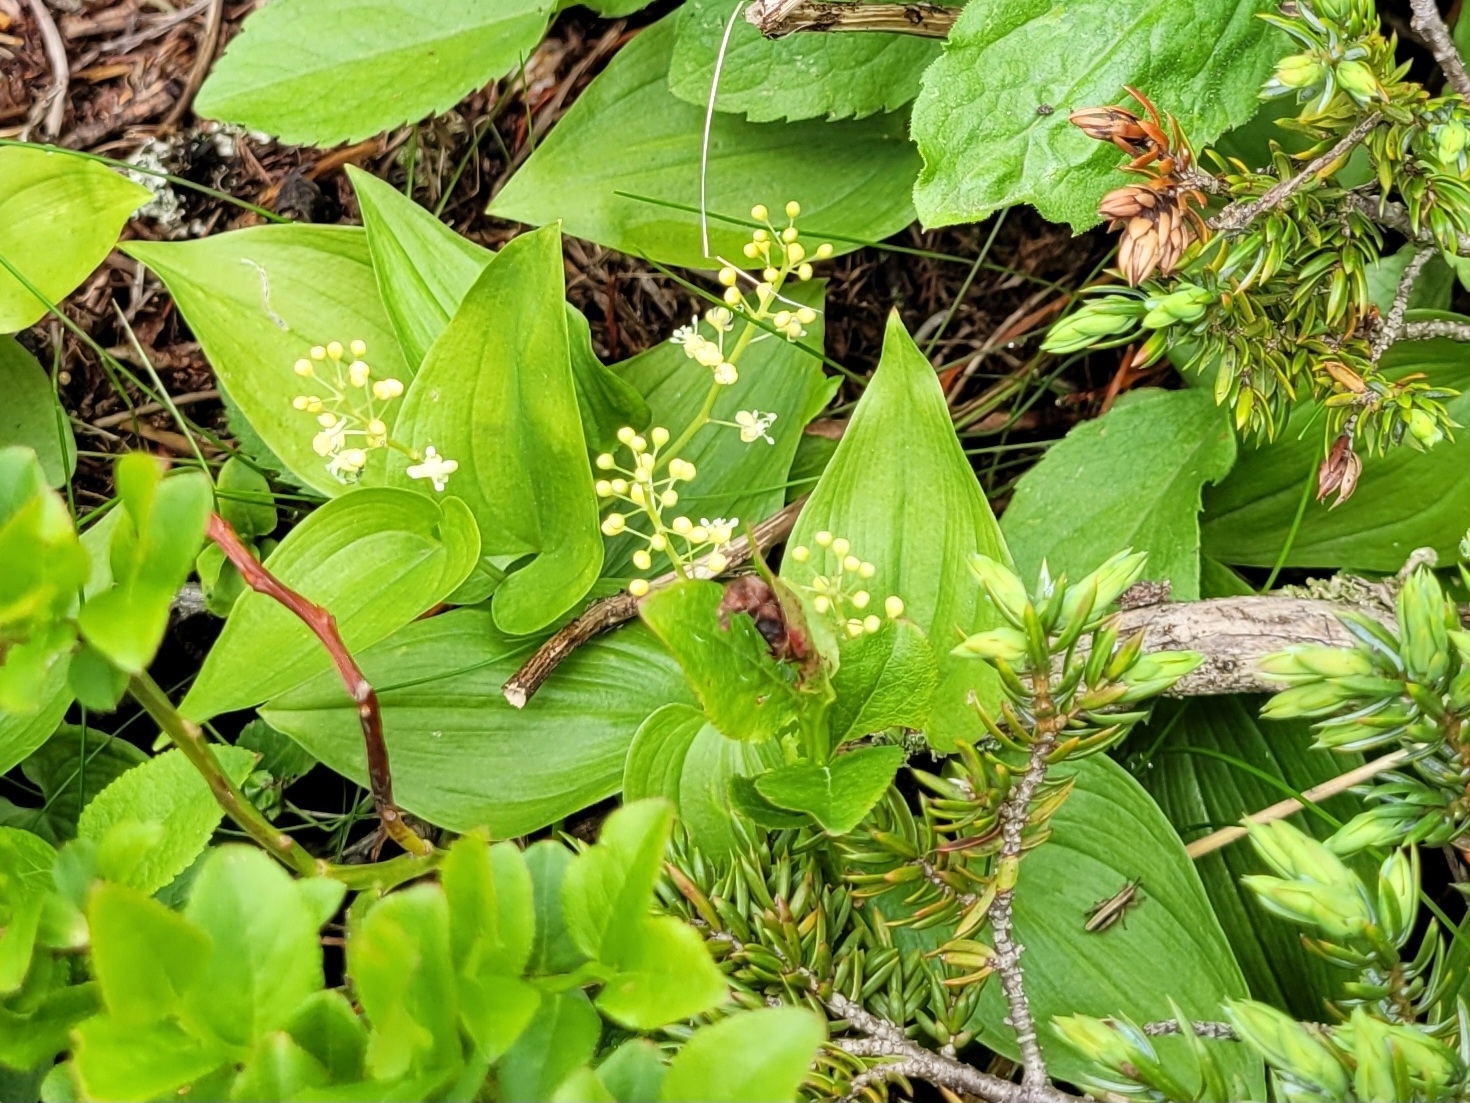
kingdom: Plantae
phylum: Tracheophyta
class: Liliopsida
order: Asparagales
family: Asparagaceae
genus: Maianthemum
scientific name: Maianthemum bifolium
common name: May lily
